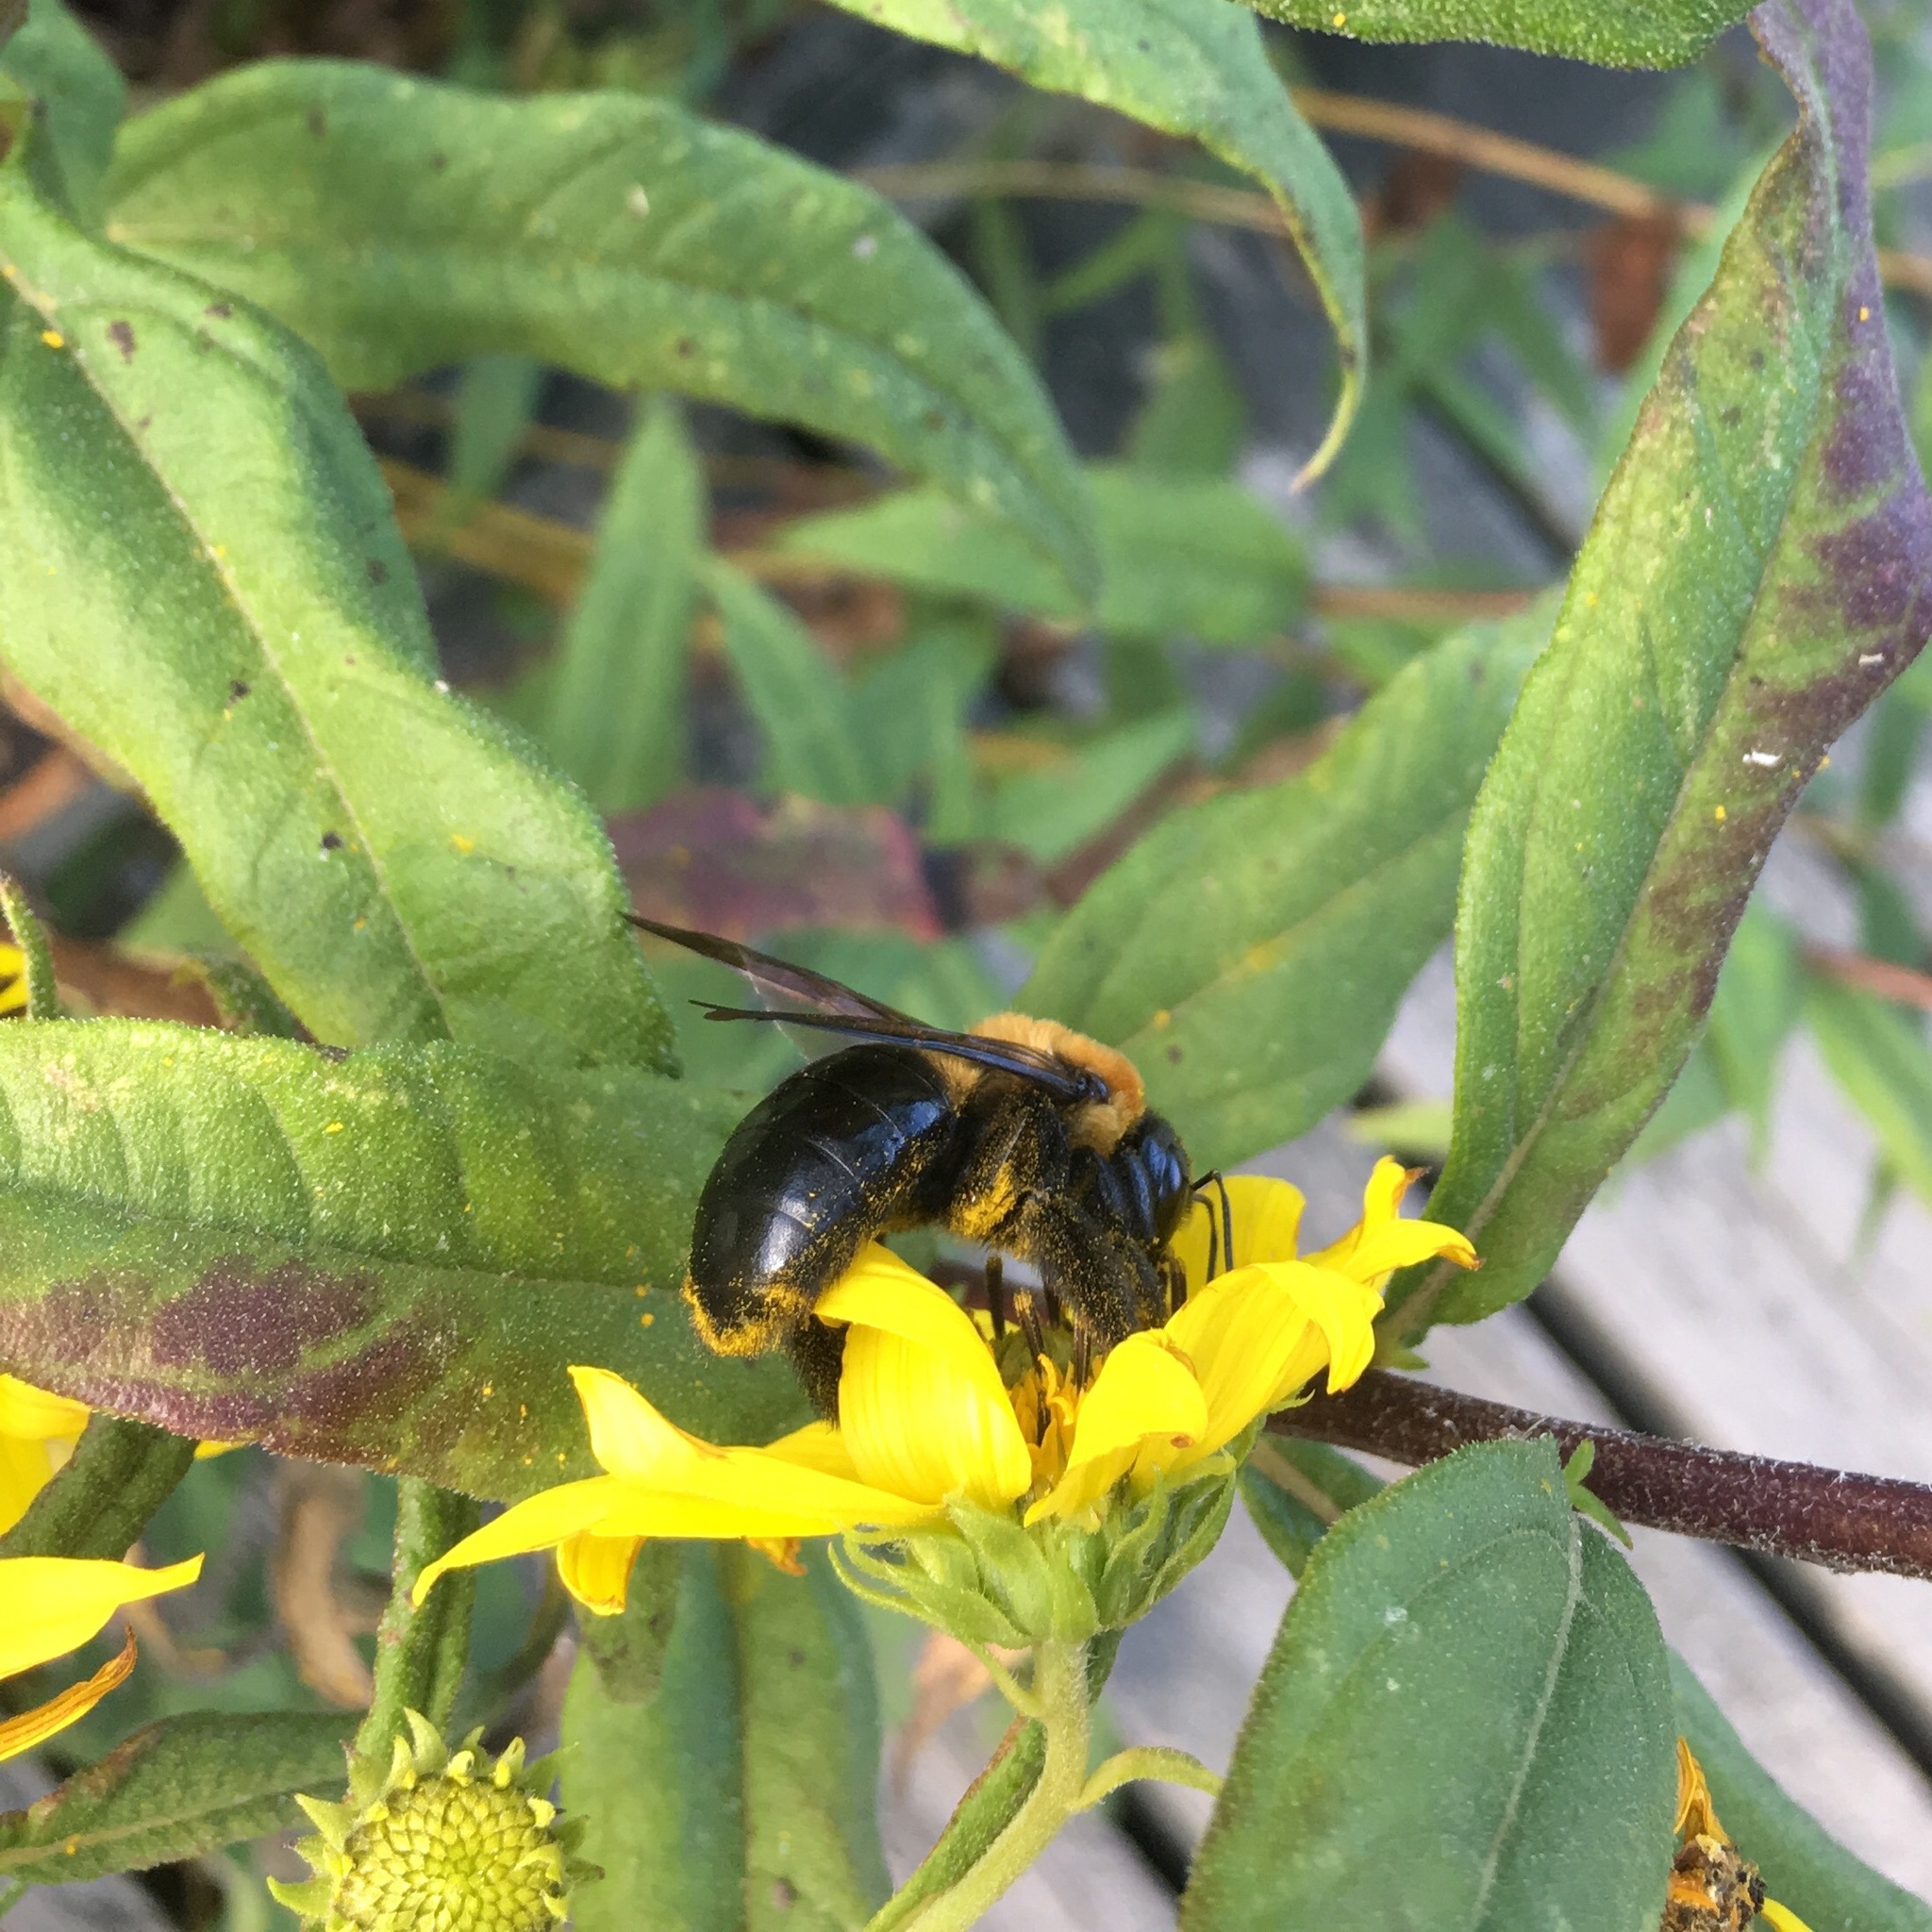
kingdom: Animalia
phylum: Arthropoda
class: Insecta
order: Hymenoptera
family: Apidae
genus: Xylocopa
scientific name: Xylocopa virginica
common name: Carpenter bee
